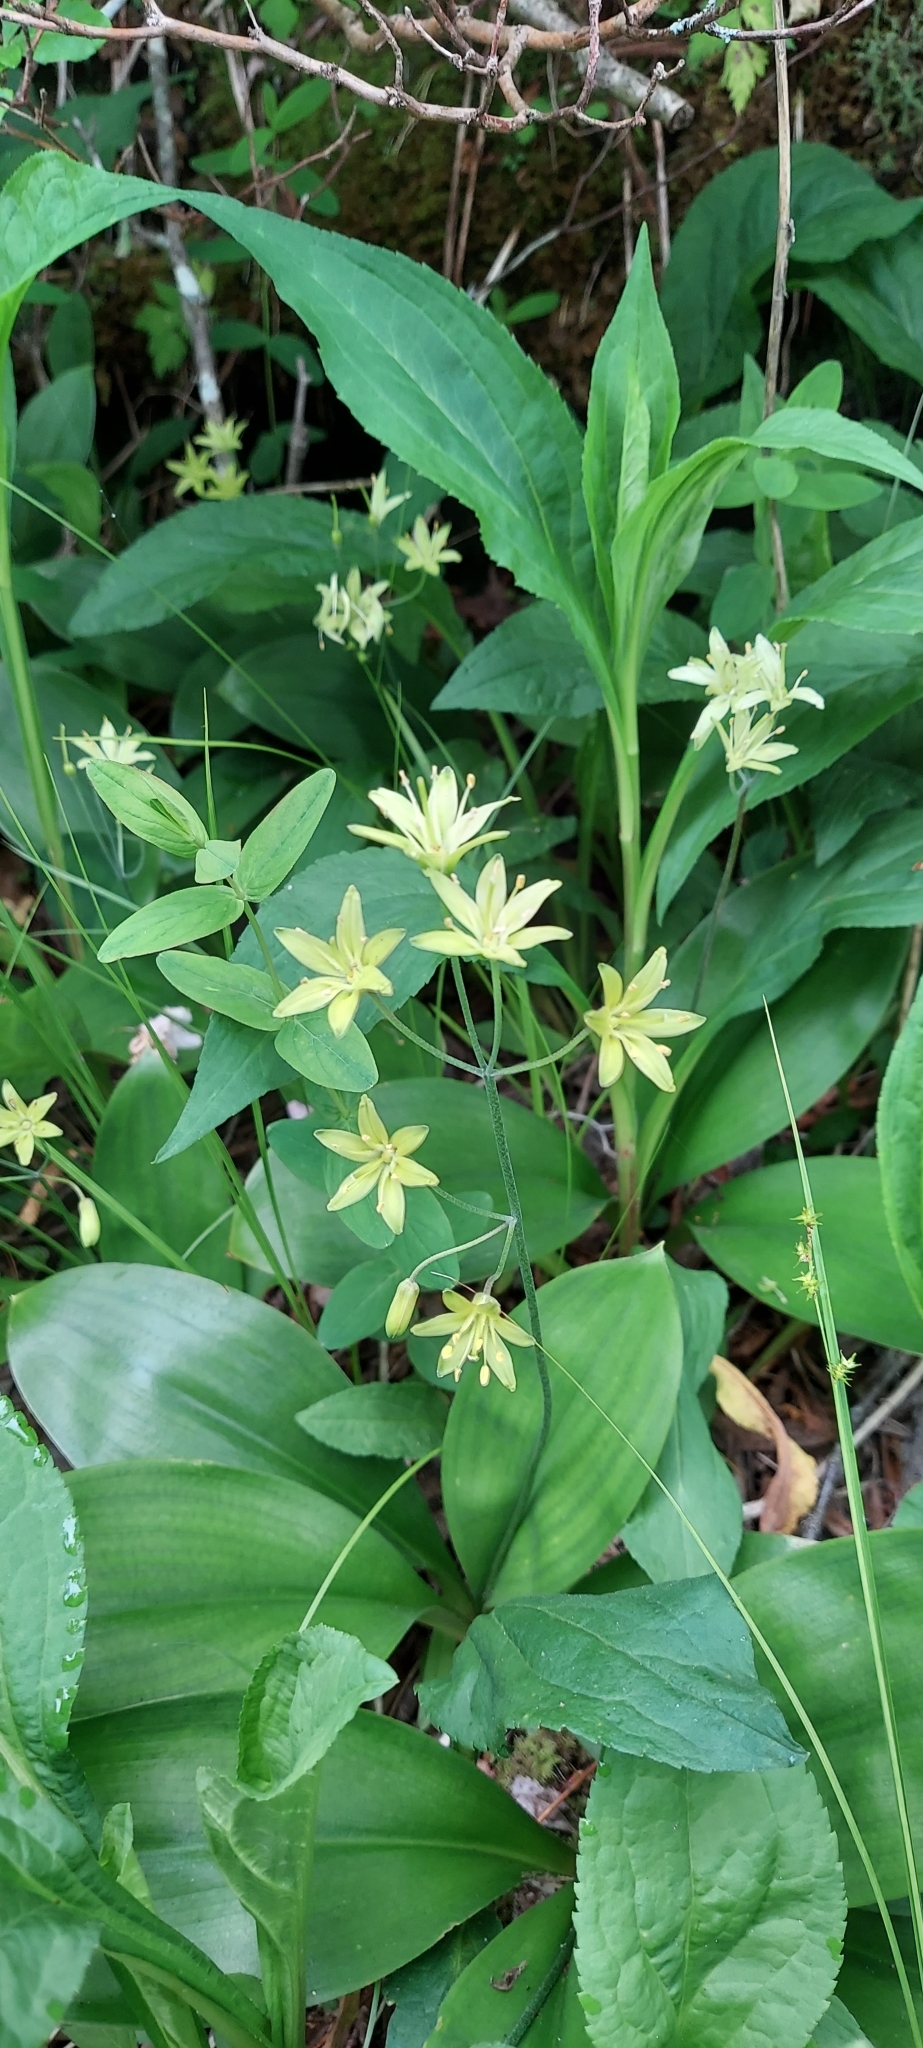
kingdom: Plantae
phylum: Tracheophyta
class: Liliopsida
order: Liliales
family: Liliaceae
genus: Clintonia
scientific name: Clintonia borealis
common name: Yellow clintonia
